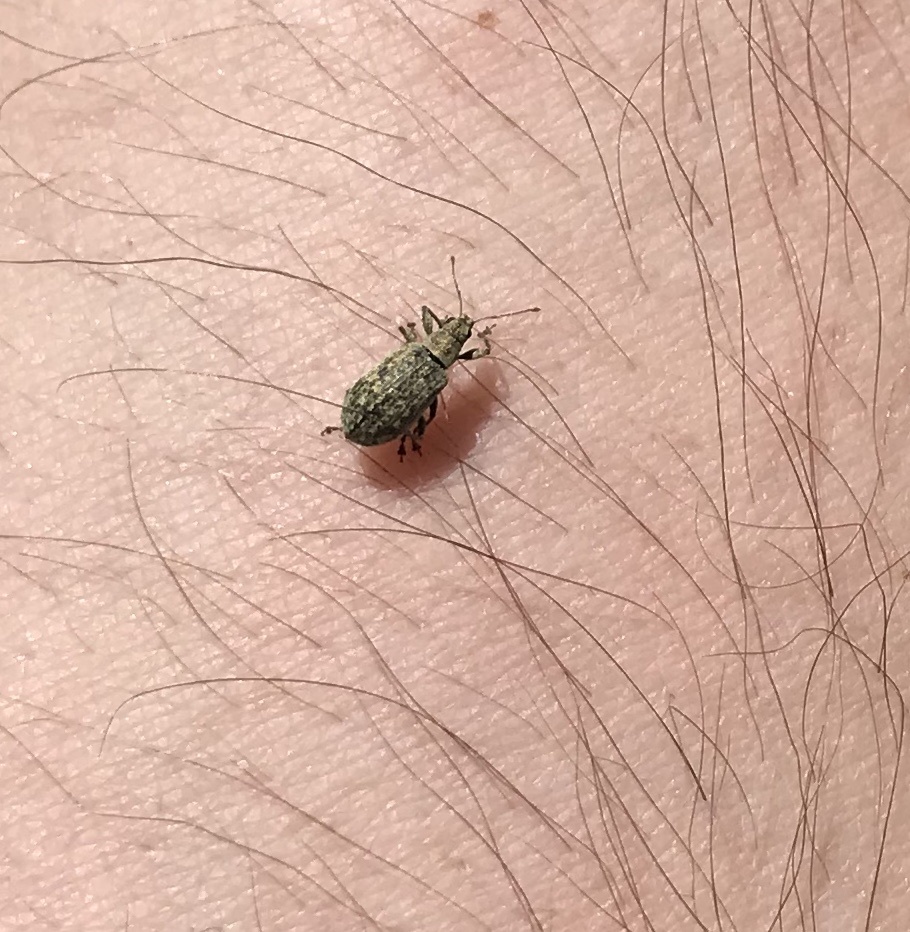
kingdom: Animalia
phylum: Arthropoda
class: Insecta
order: Coleoptera
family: Curculionidae
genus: Polydrusus
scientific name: Polydrusus cervinus
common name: Weevil
